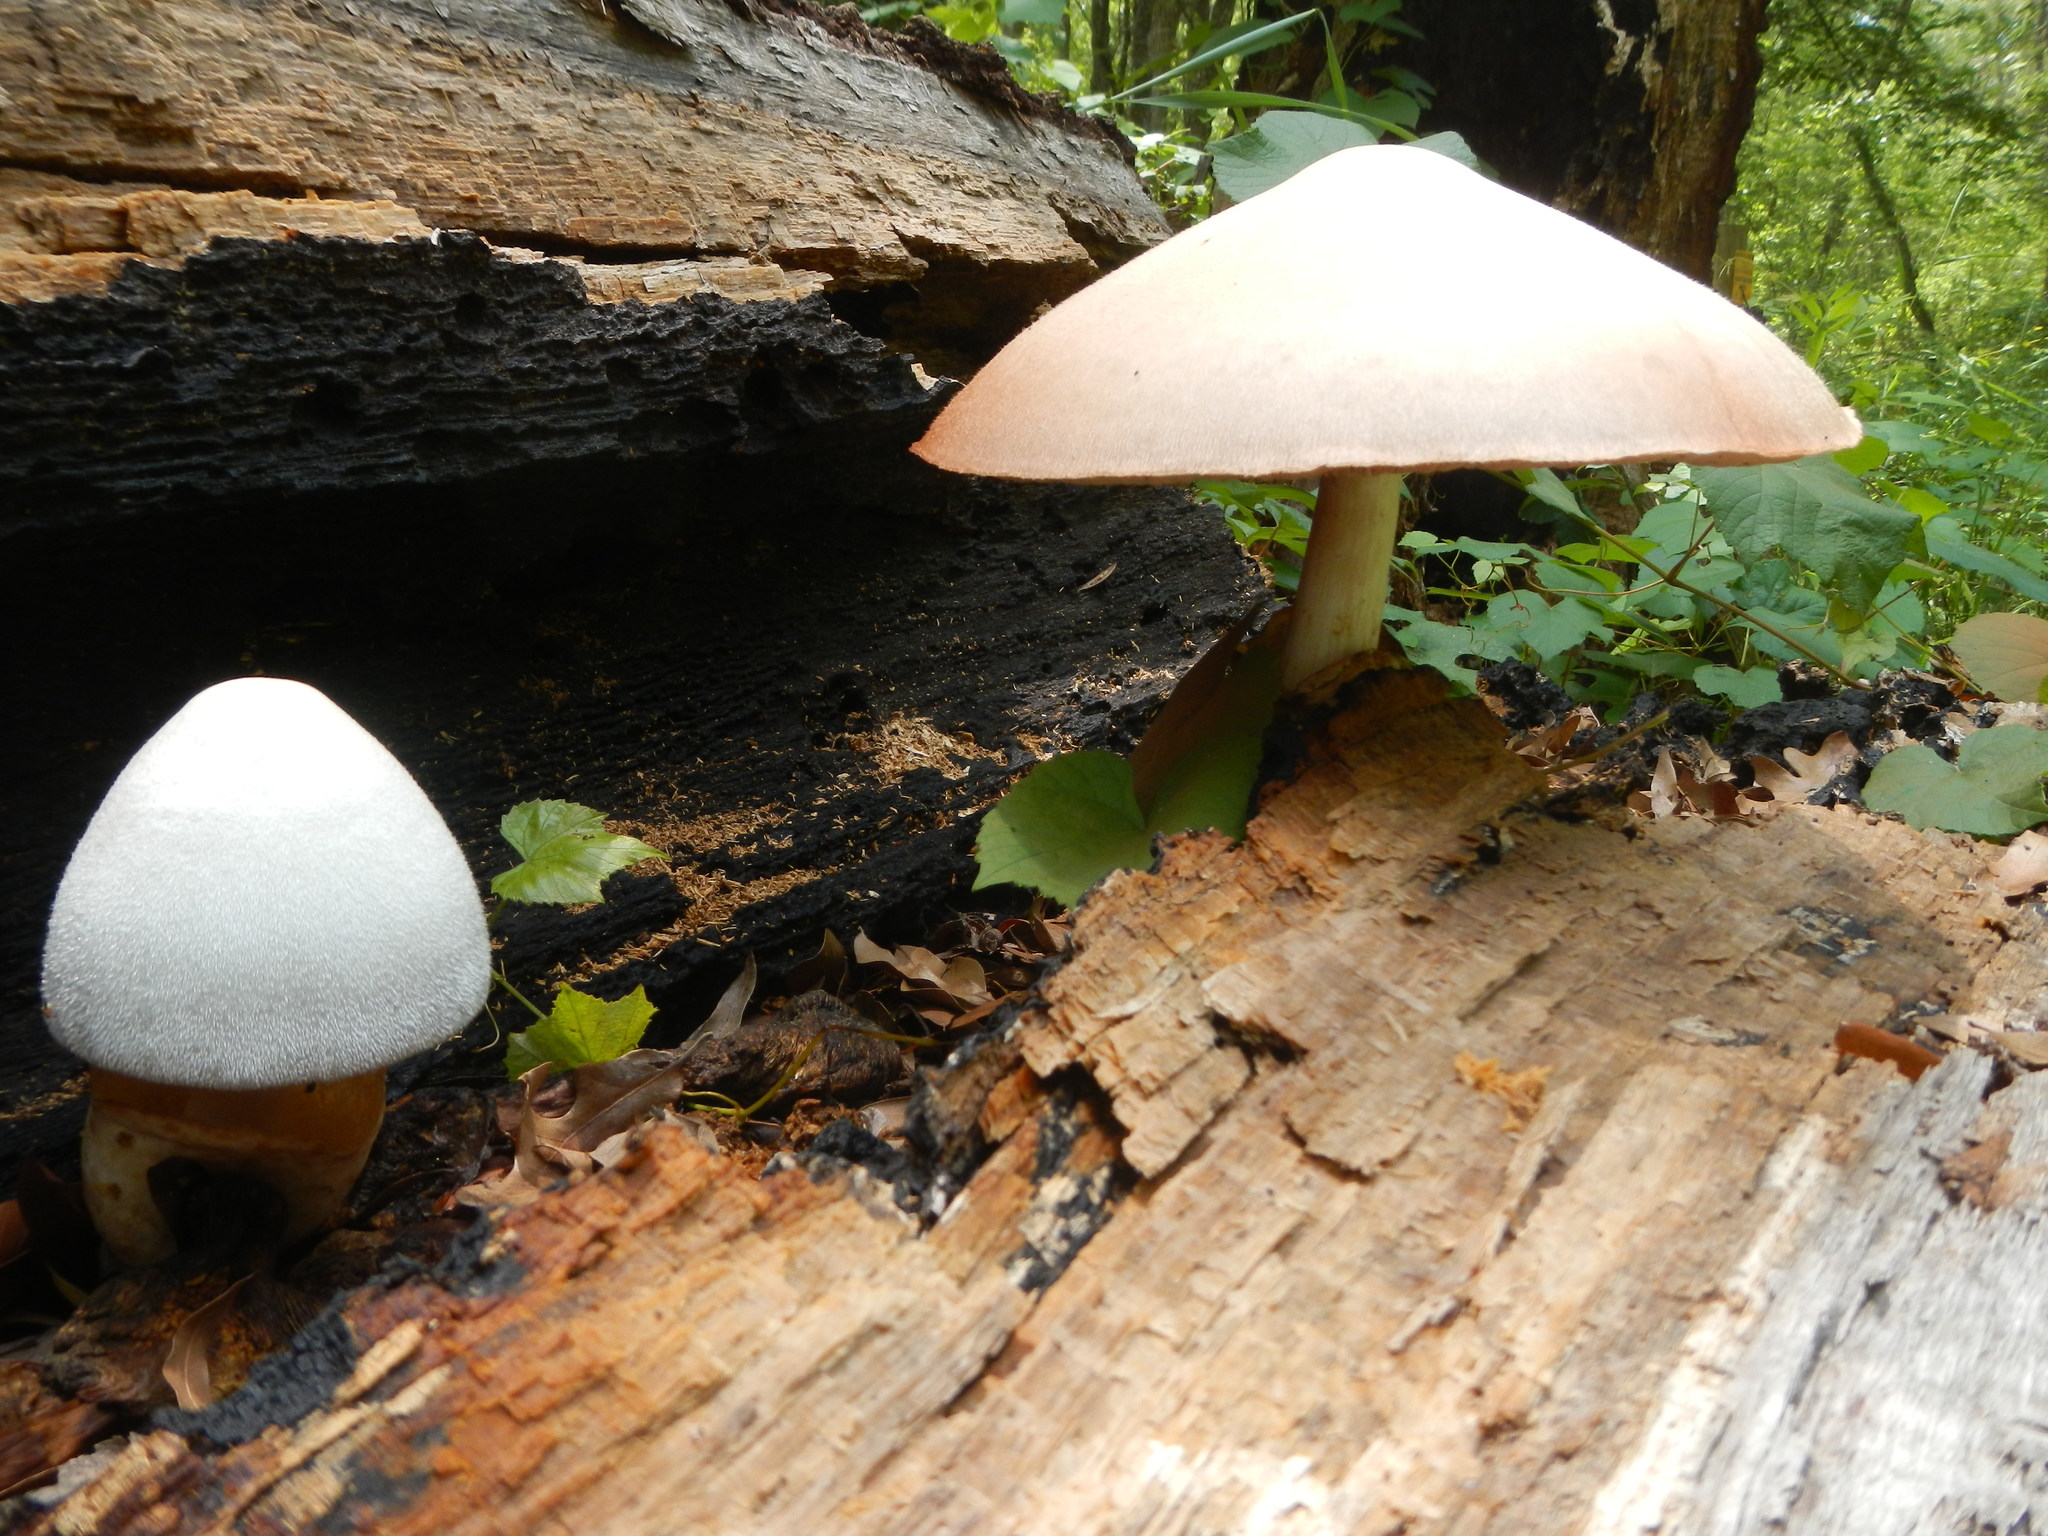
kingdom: Fungi
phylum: Basidiomycota
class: Agaricomycetes
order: Agaricales
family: Pluteaceae
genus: Volvariella
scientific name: Volvariella bombycina
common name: Silky rosegill
